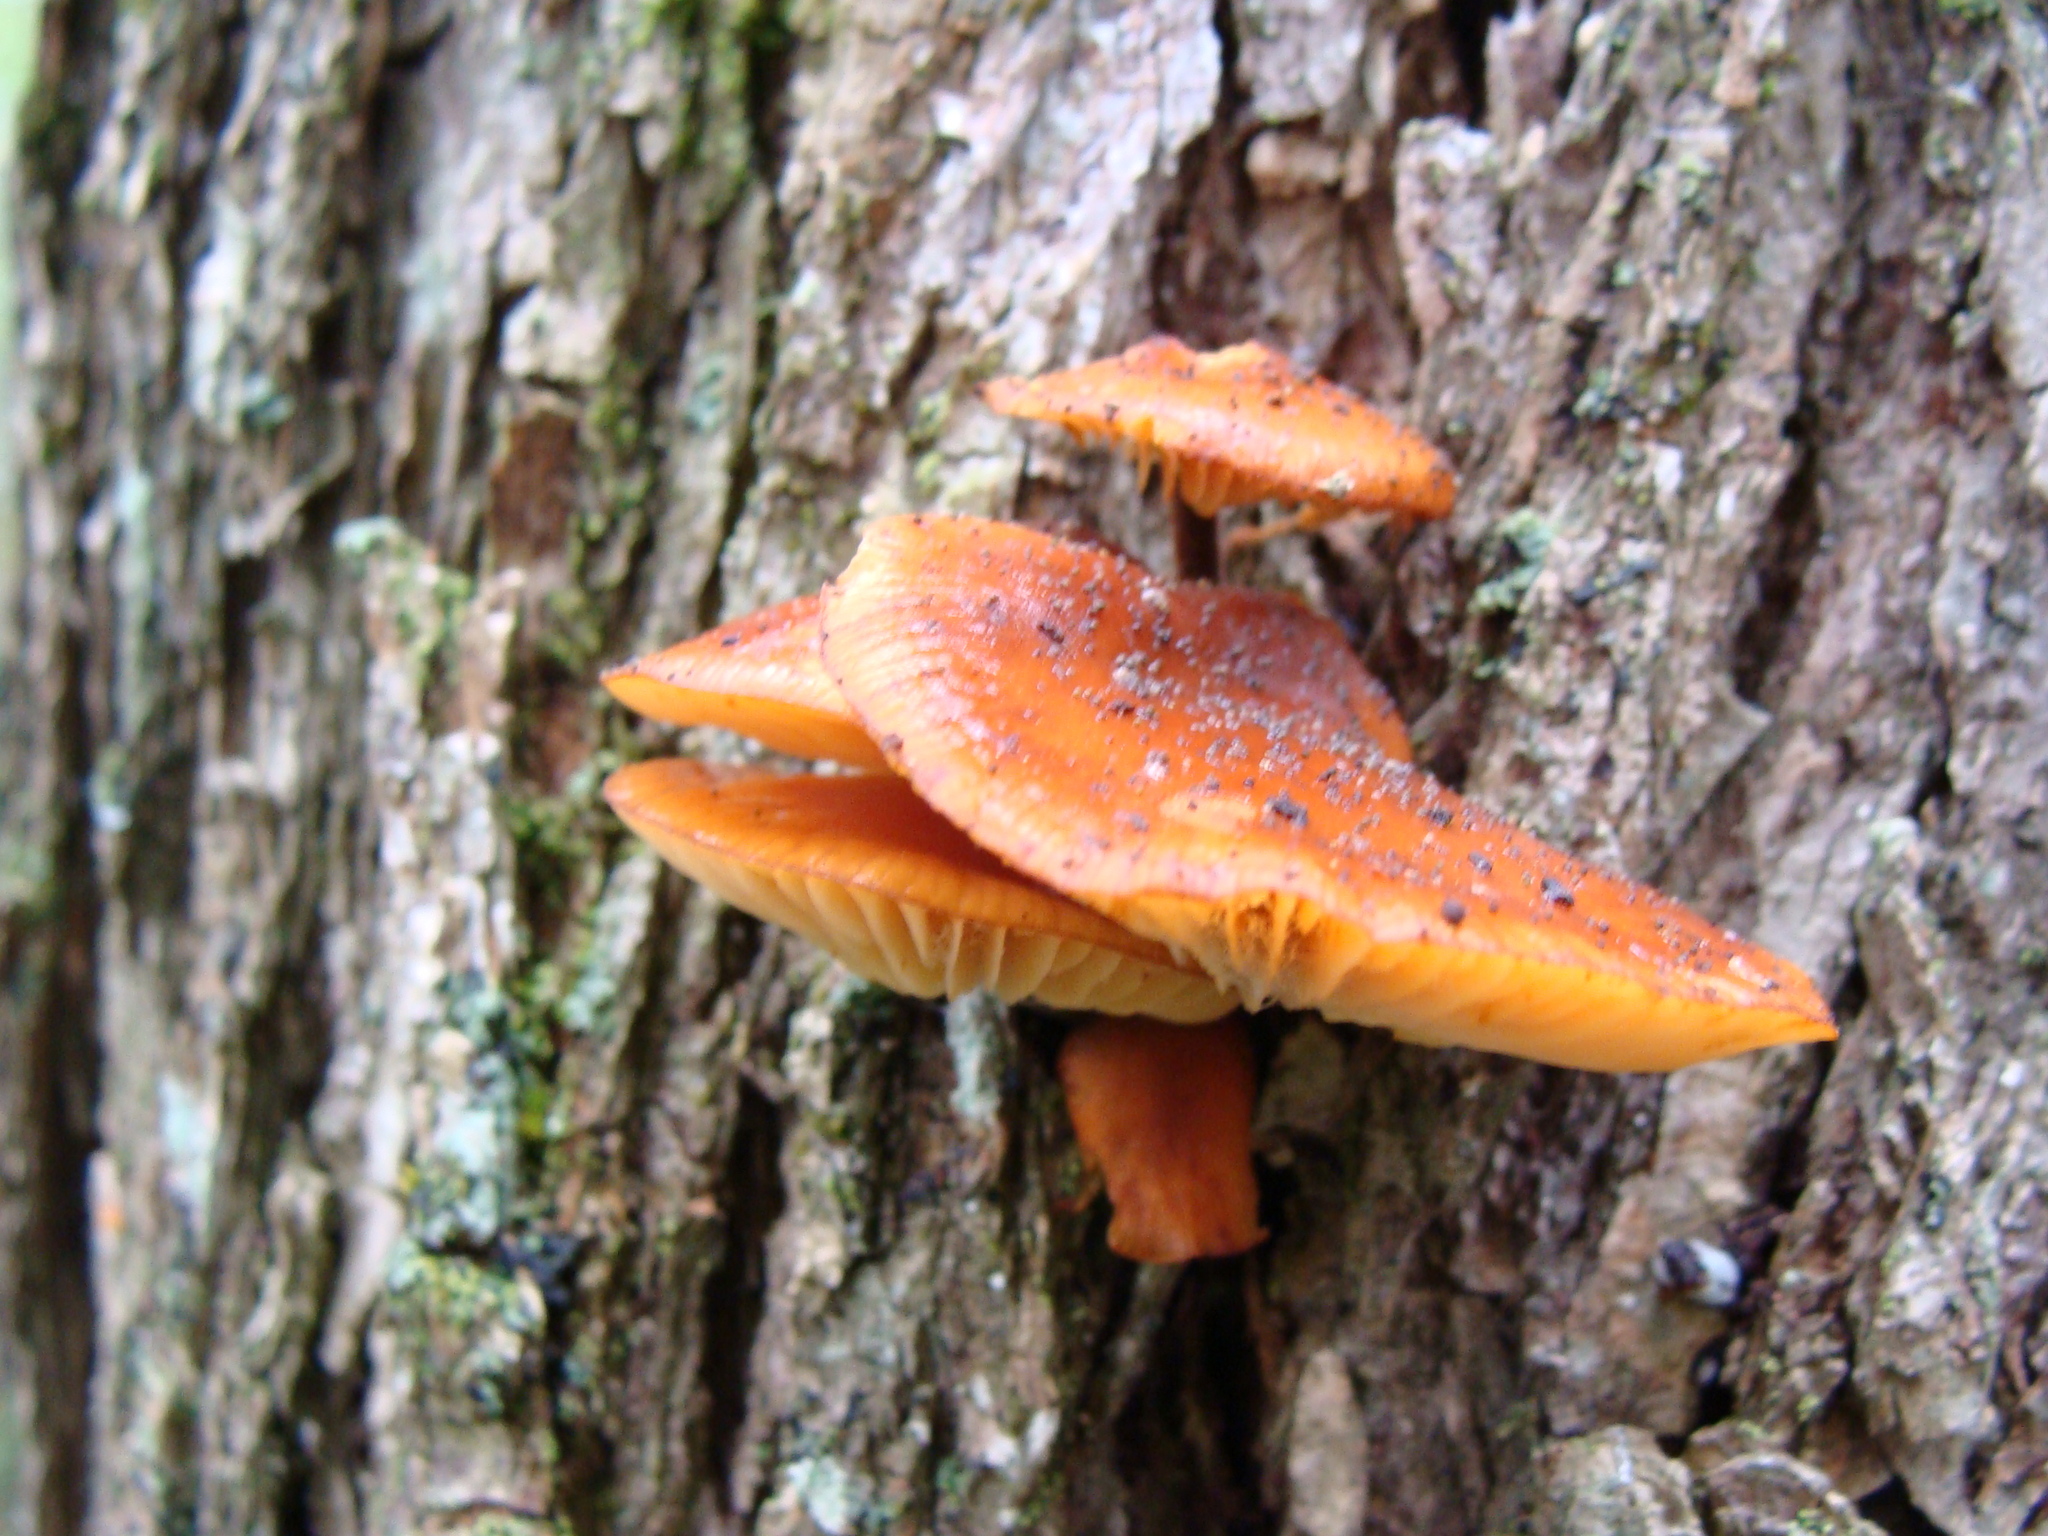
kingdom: Fungi
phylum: Basidiomycota
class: Agaricomycetes
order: Agaricales
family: Physalacriaceae
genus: Flammulina
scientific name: Flammulina velutipes
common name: Velvet shank
